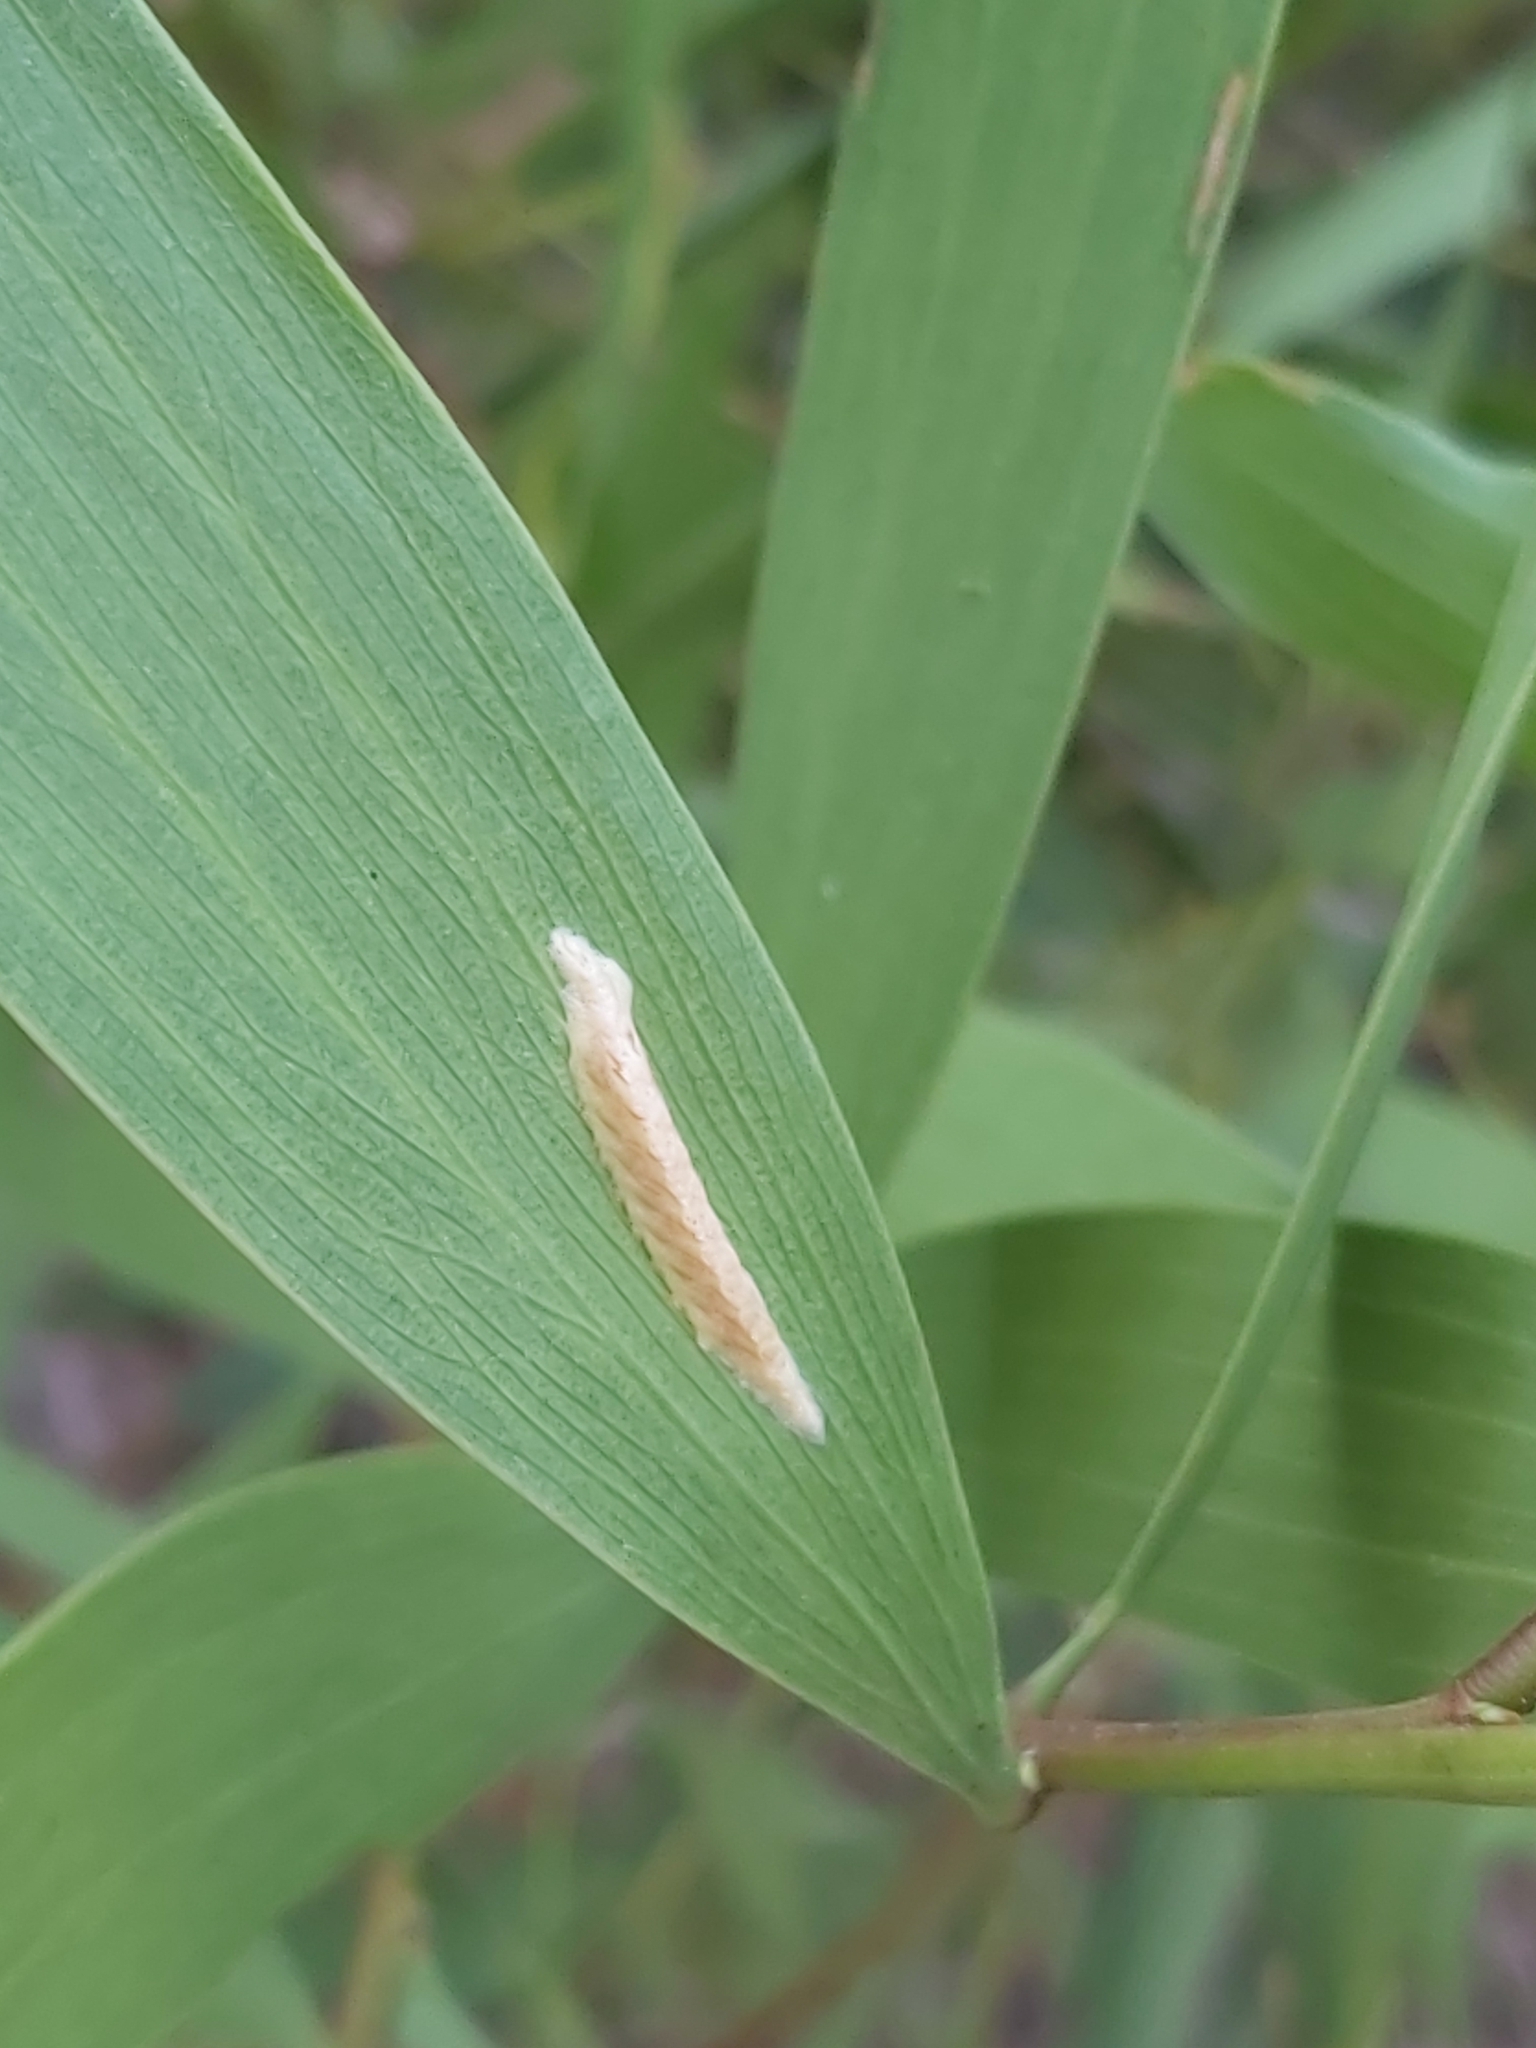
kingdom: Animalia
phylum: Arthropoda
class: Insecta
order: Mantodea
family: Nanomantidae
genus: Kongobatha
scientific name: Kongobatha diademata
